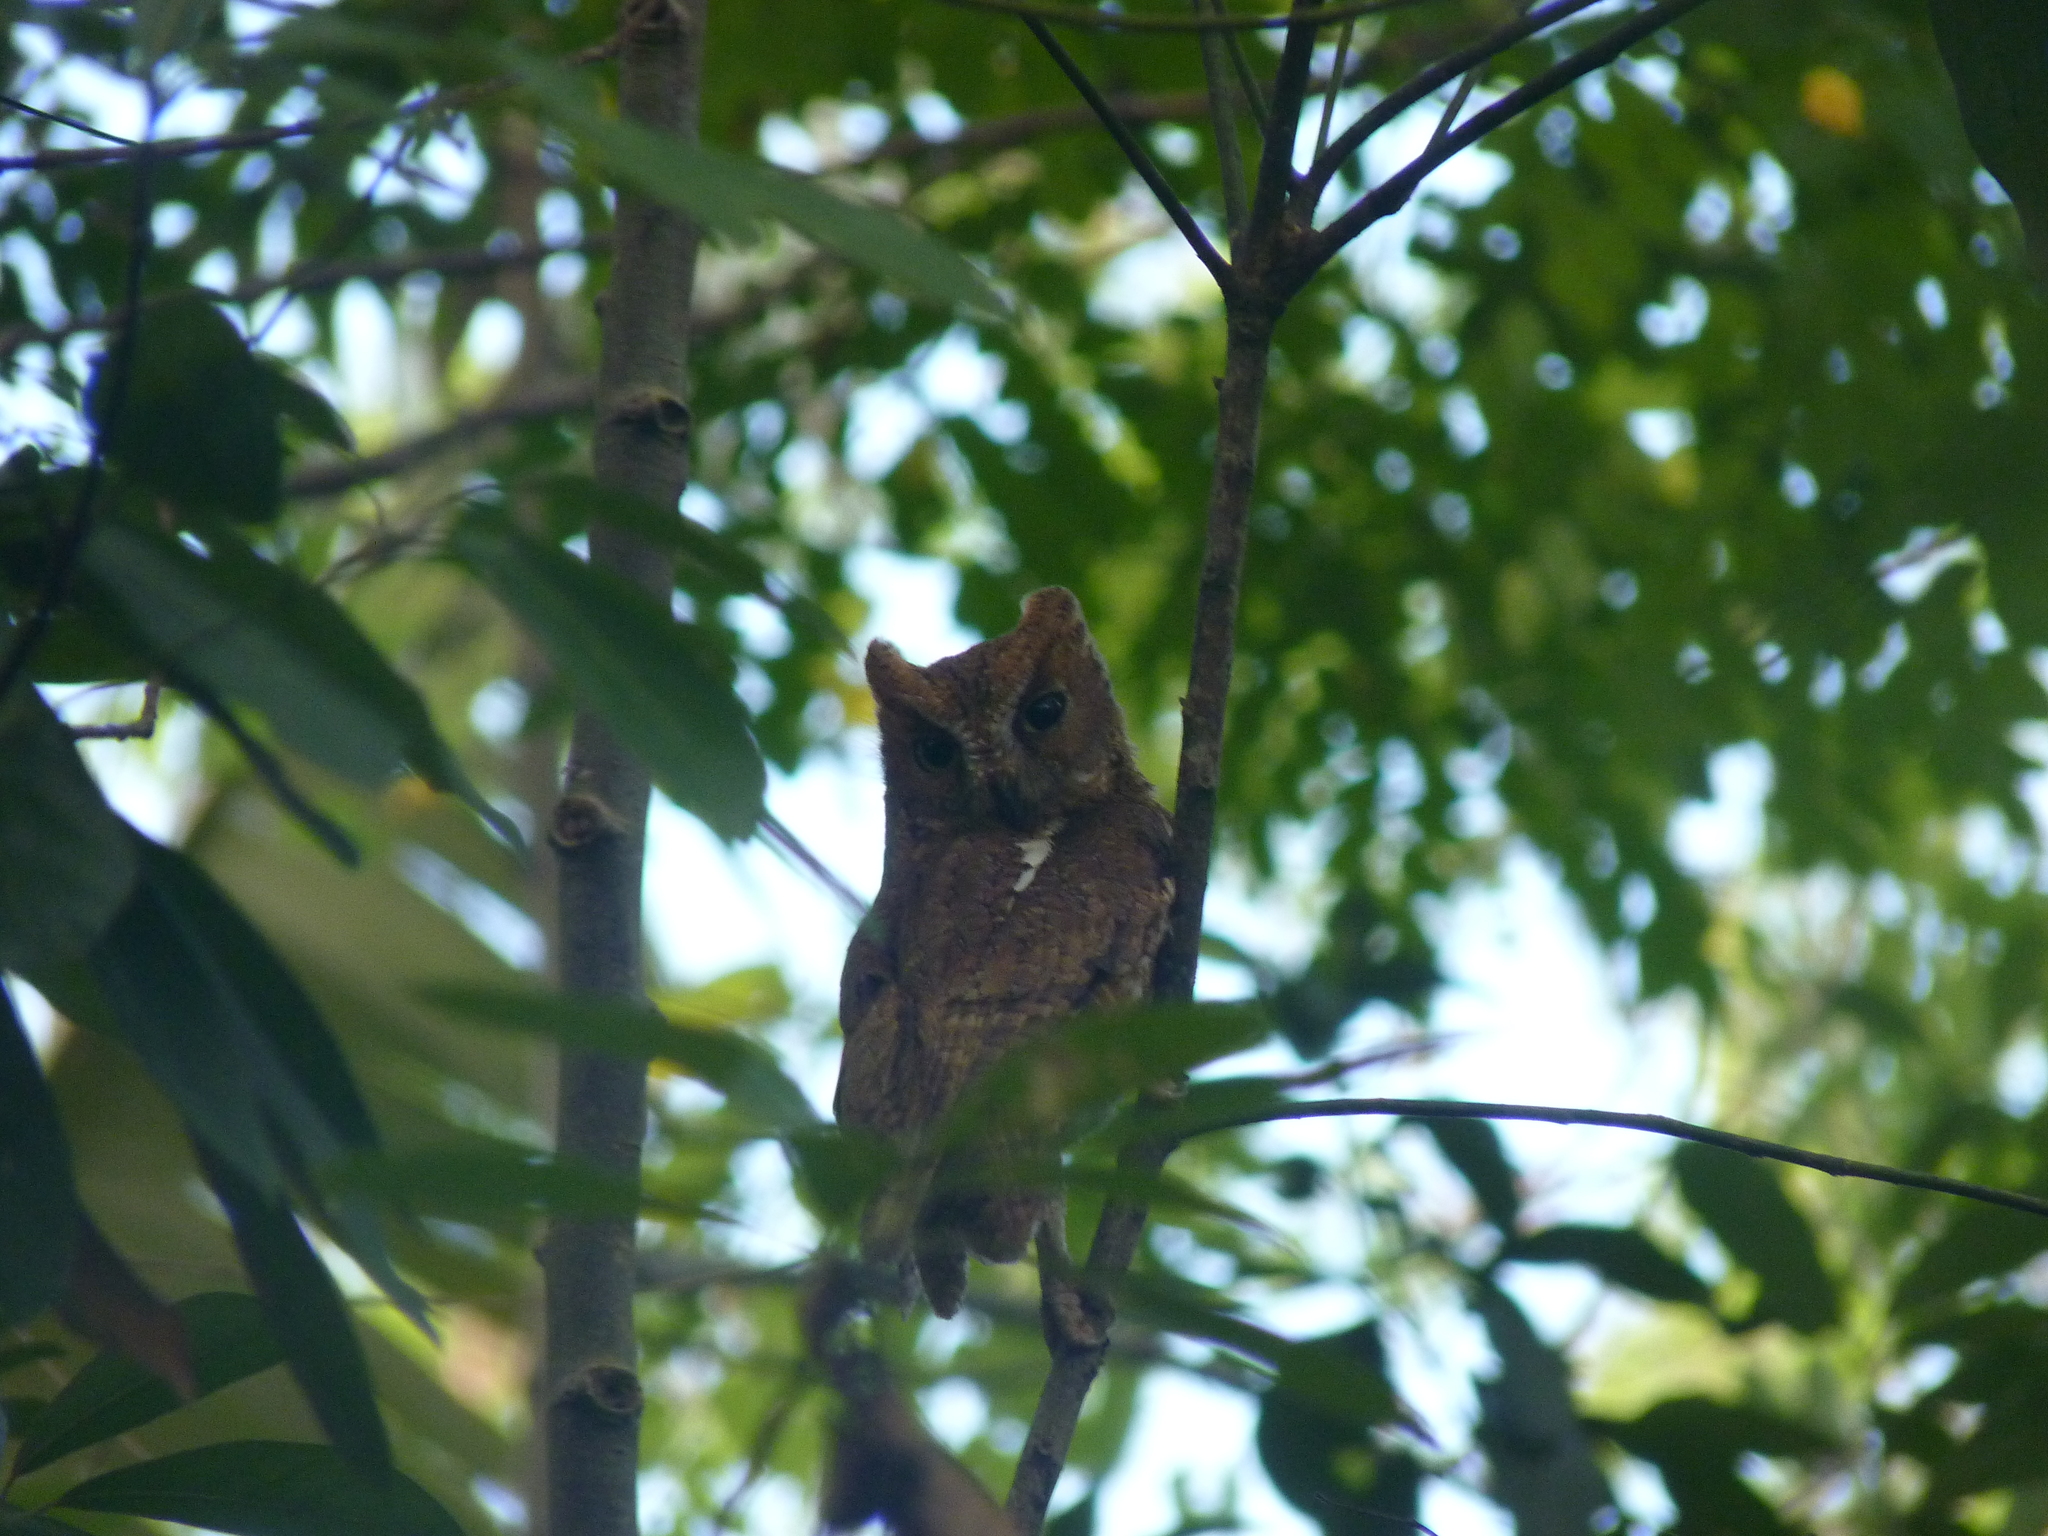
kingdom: Animalia
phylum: Chordata
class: Aves
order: Strigiformes
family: Strigidae
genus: Otus
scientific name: Otus rutilus
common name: Rainforest scops owl
